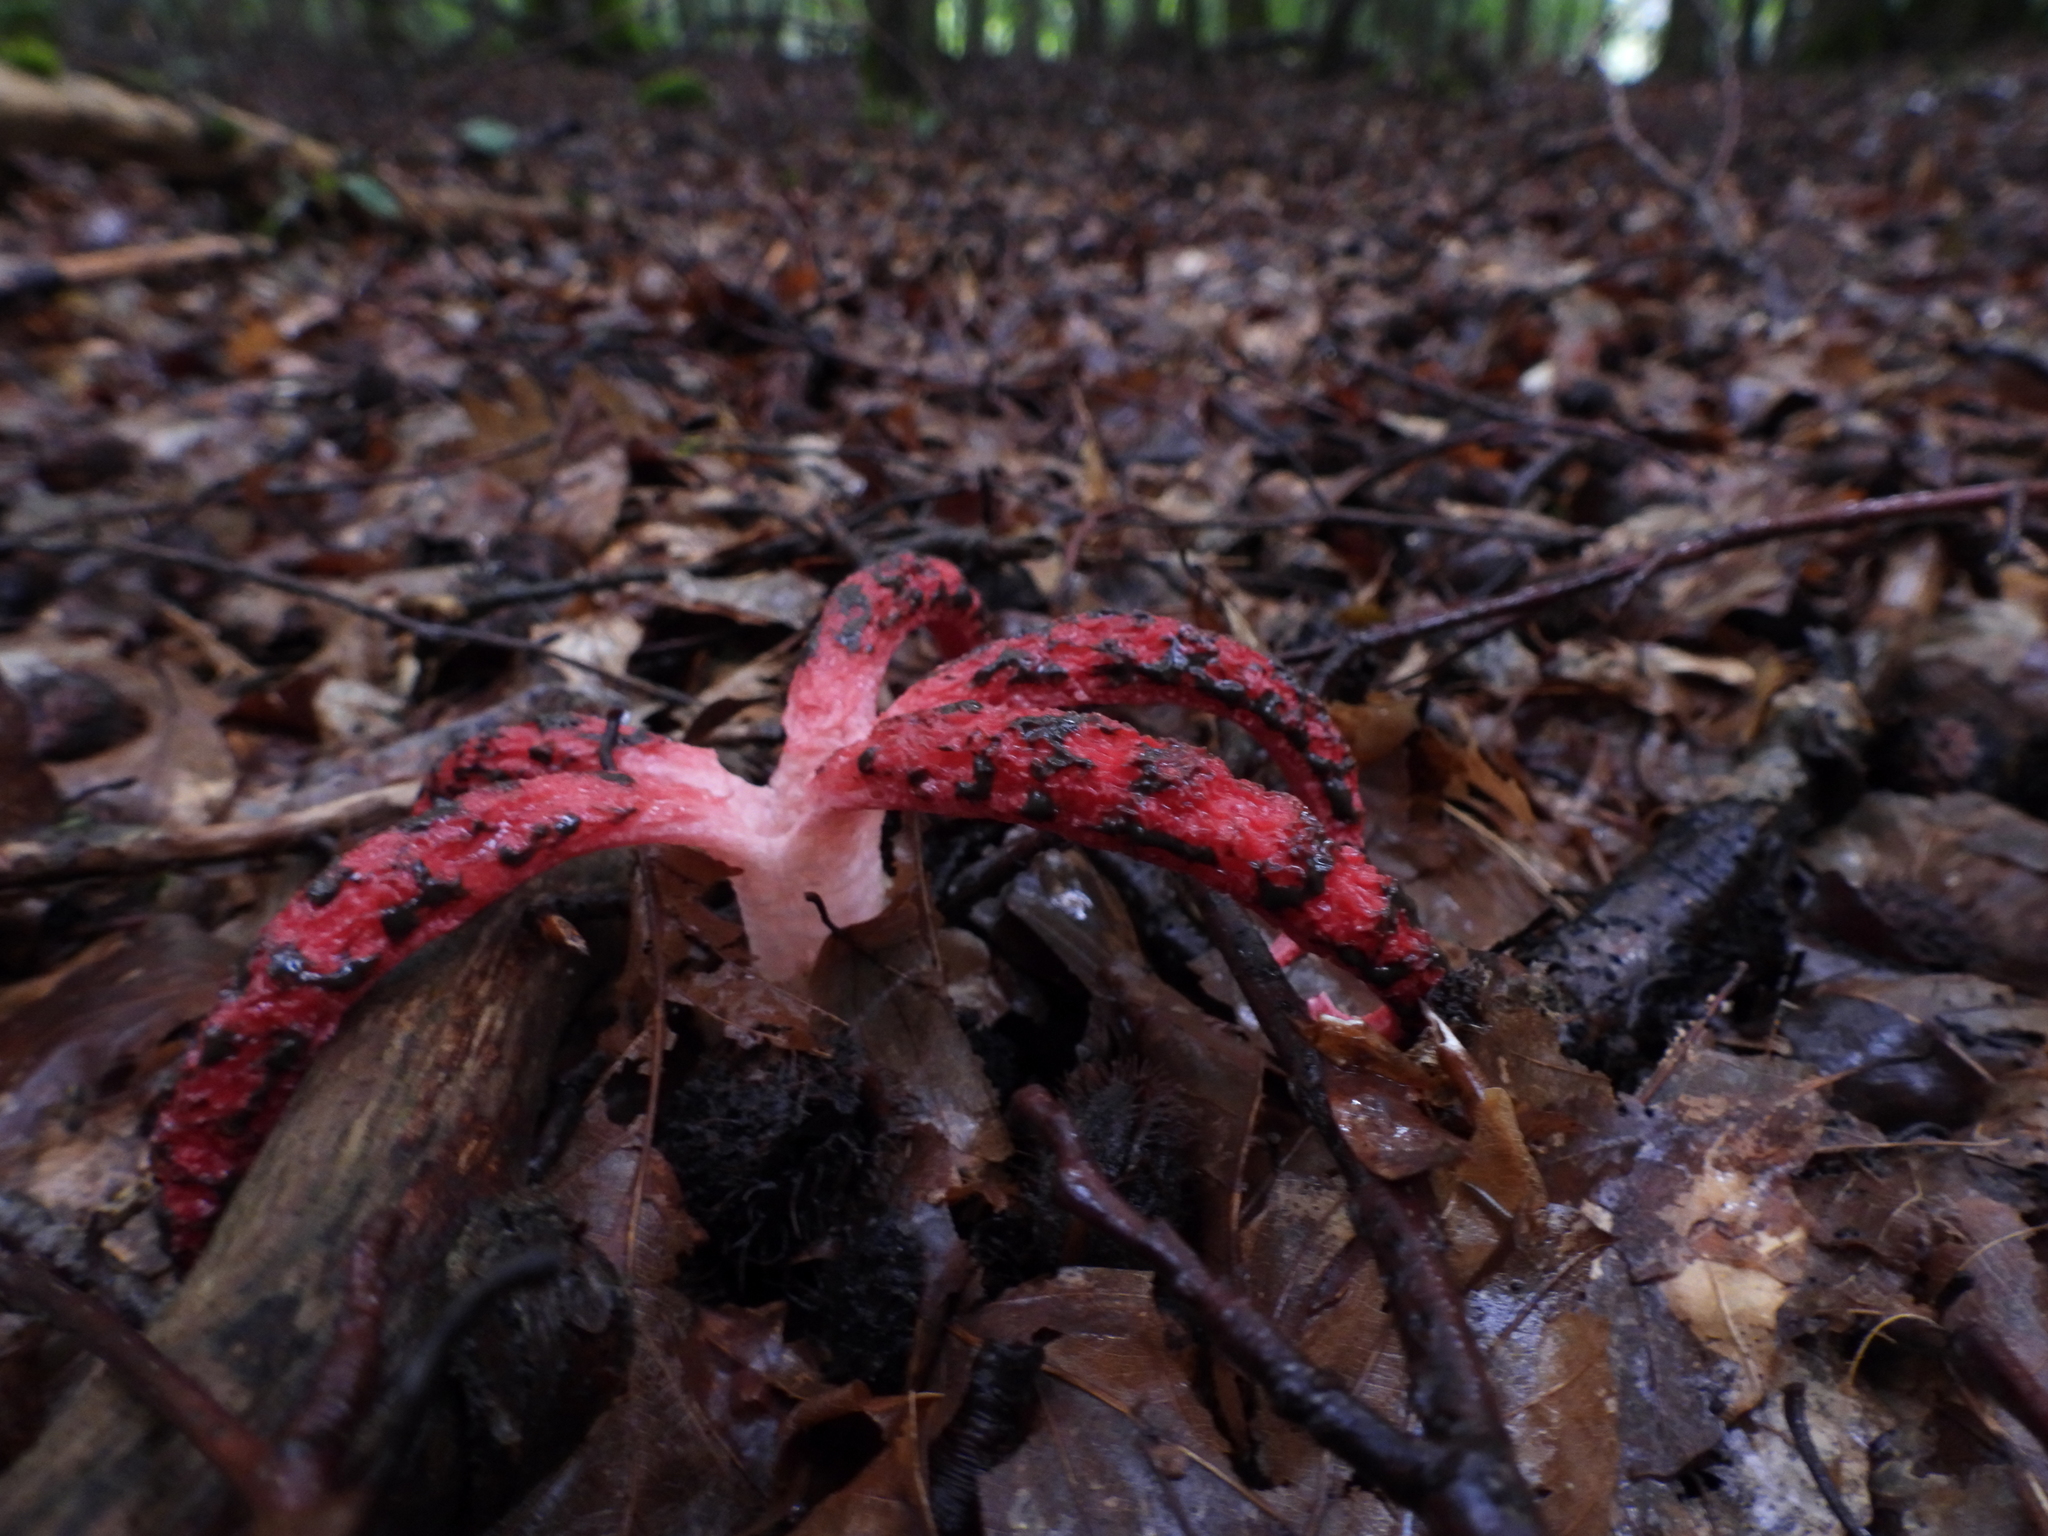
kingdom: Fungi
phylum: Basidiomycota
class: Agaricomycetes
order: Phallales
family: Phallaceae
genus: Clathrus
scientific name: Clathrus archeri
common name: Devil's fingers
